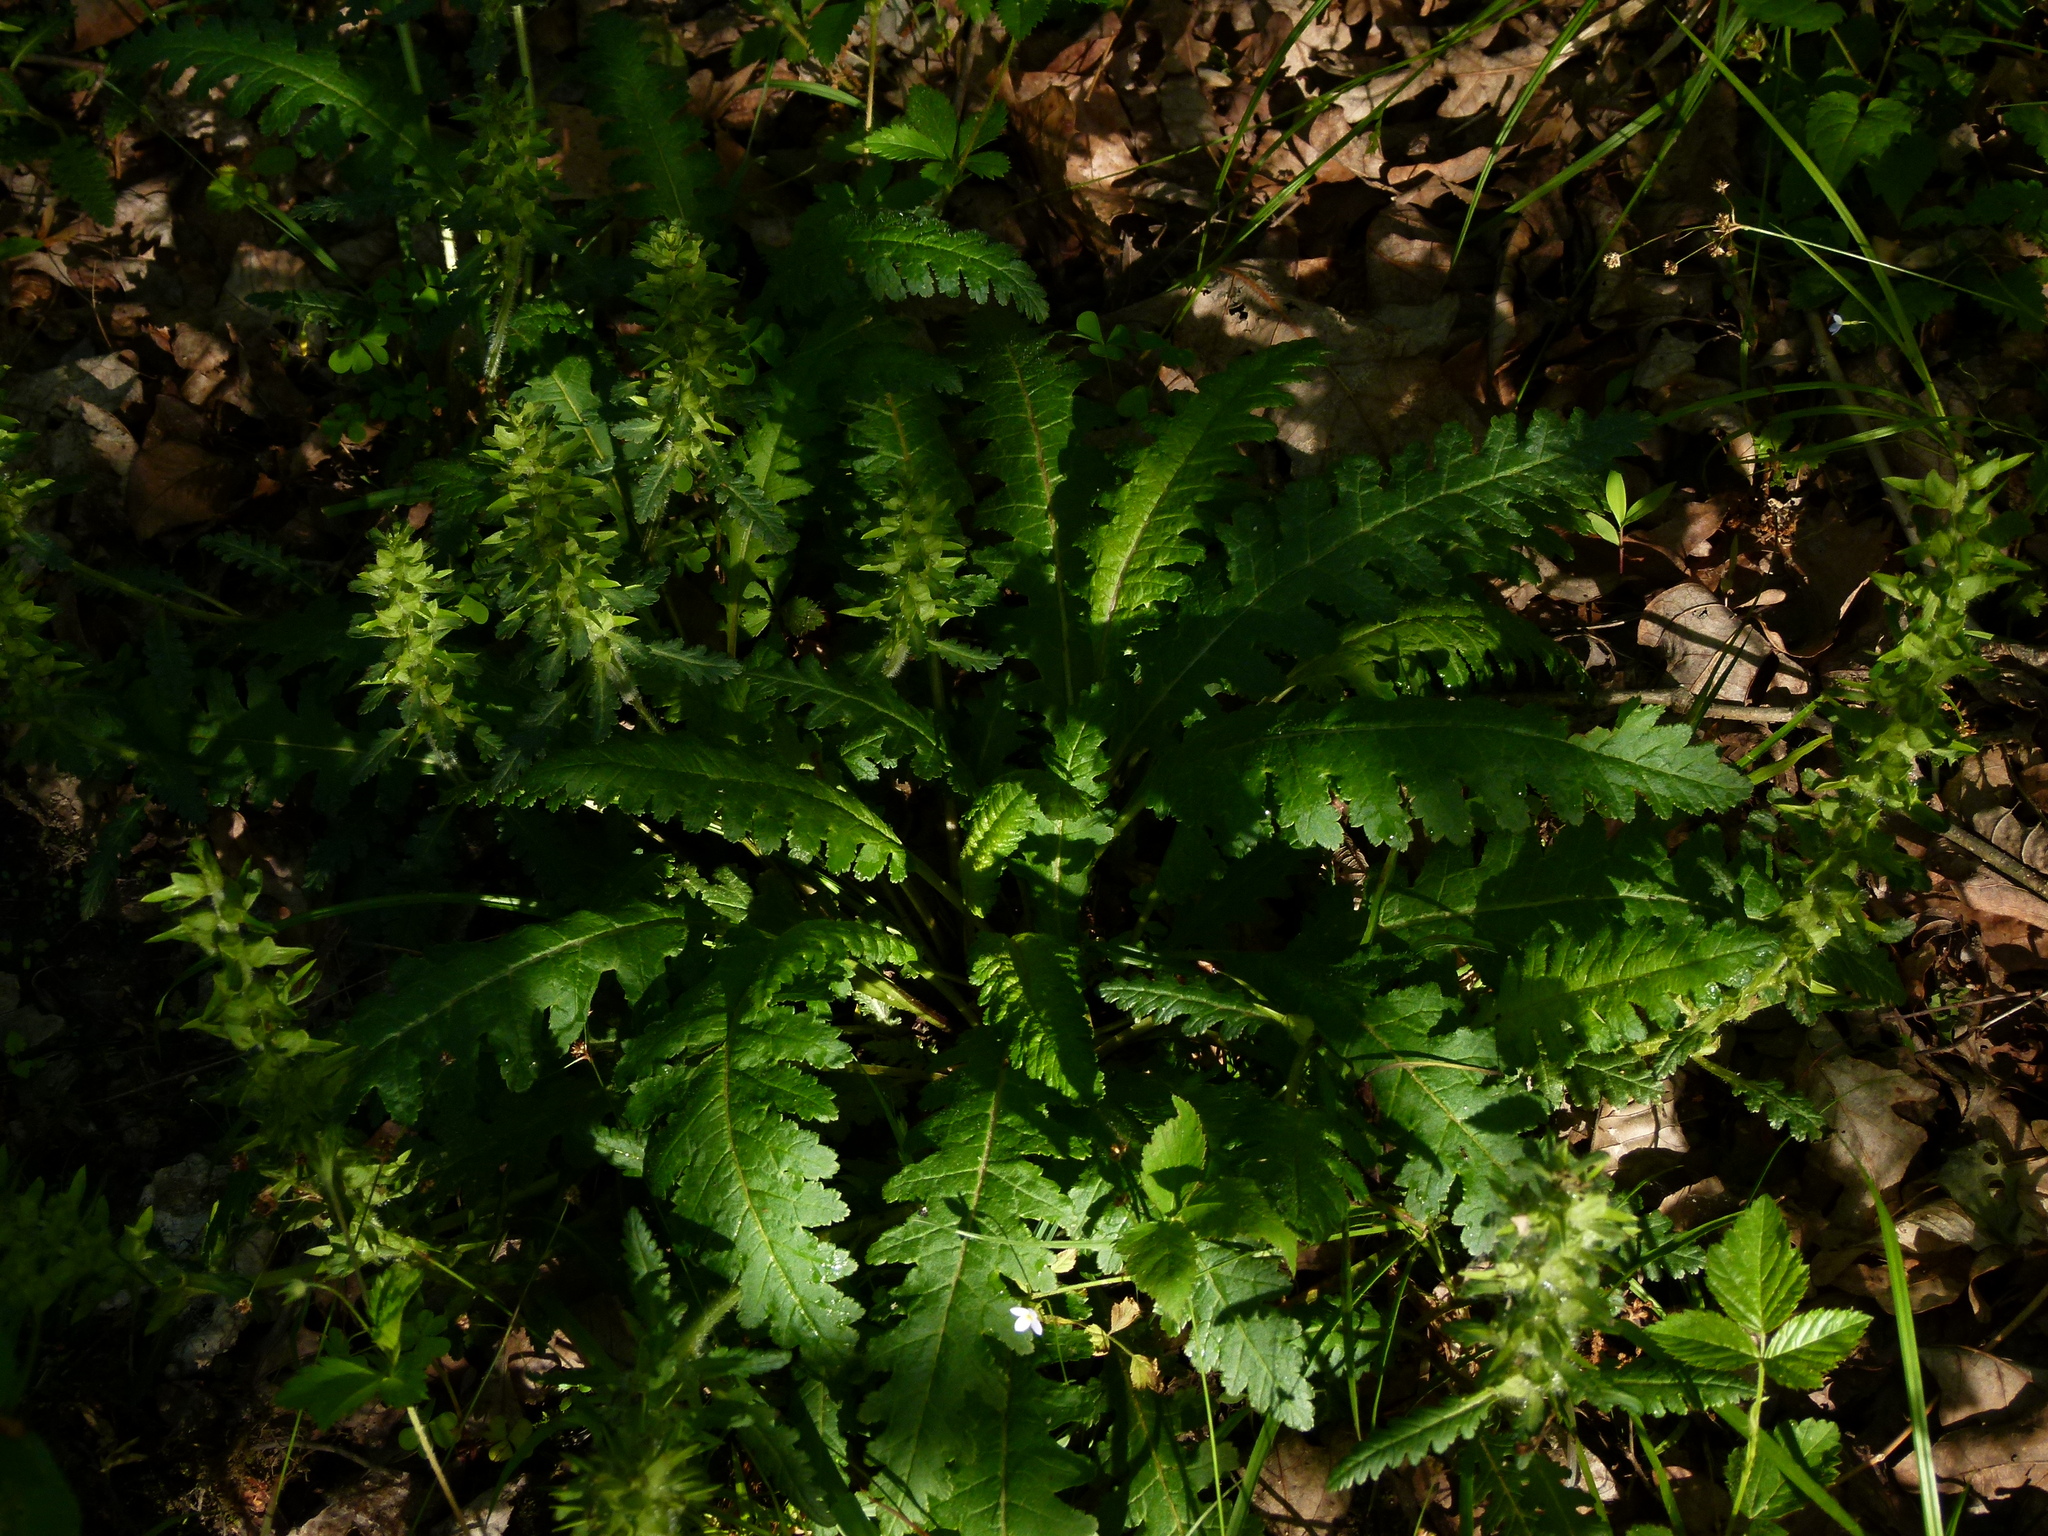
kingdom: Plantae
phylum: Tracheophyta
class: Magnoliopsida
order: Lamiales
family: Orobanchaceae
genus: Pedicularis
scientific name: Pedicularis canadensis
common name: Early lousewort
